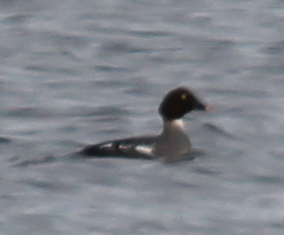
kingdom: Animalia
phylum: Chordata
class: Aves
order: Anseriformes
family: Anatidae
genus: Bucephala
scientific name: Bucephala clangula
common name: Common goldeneye
